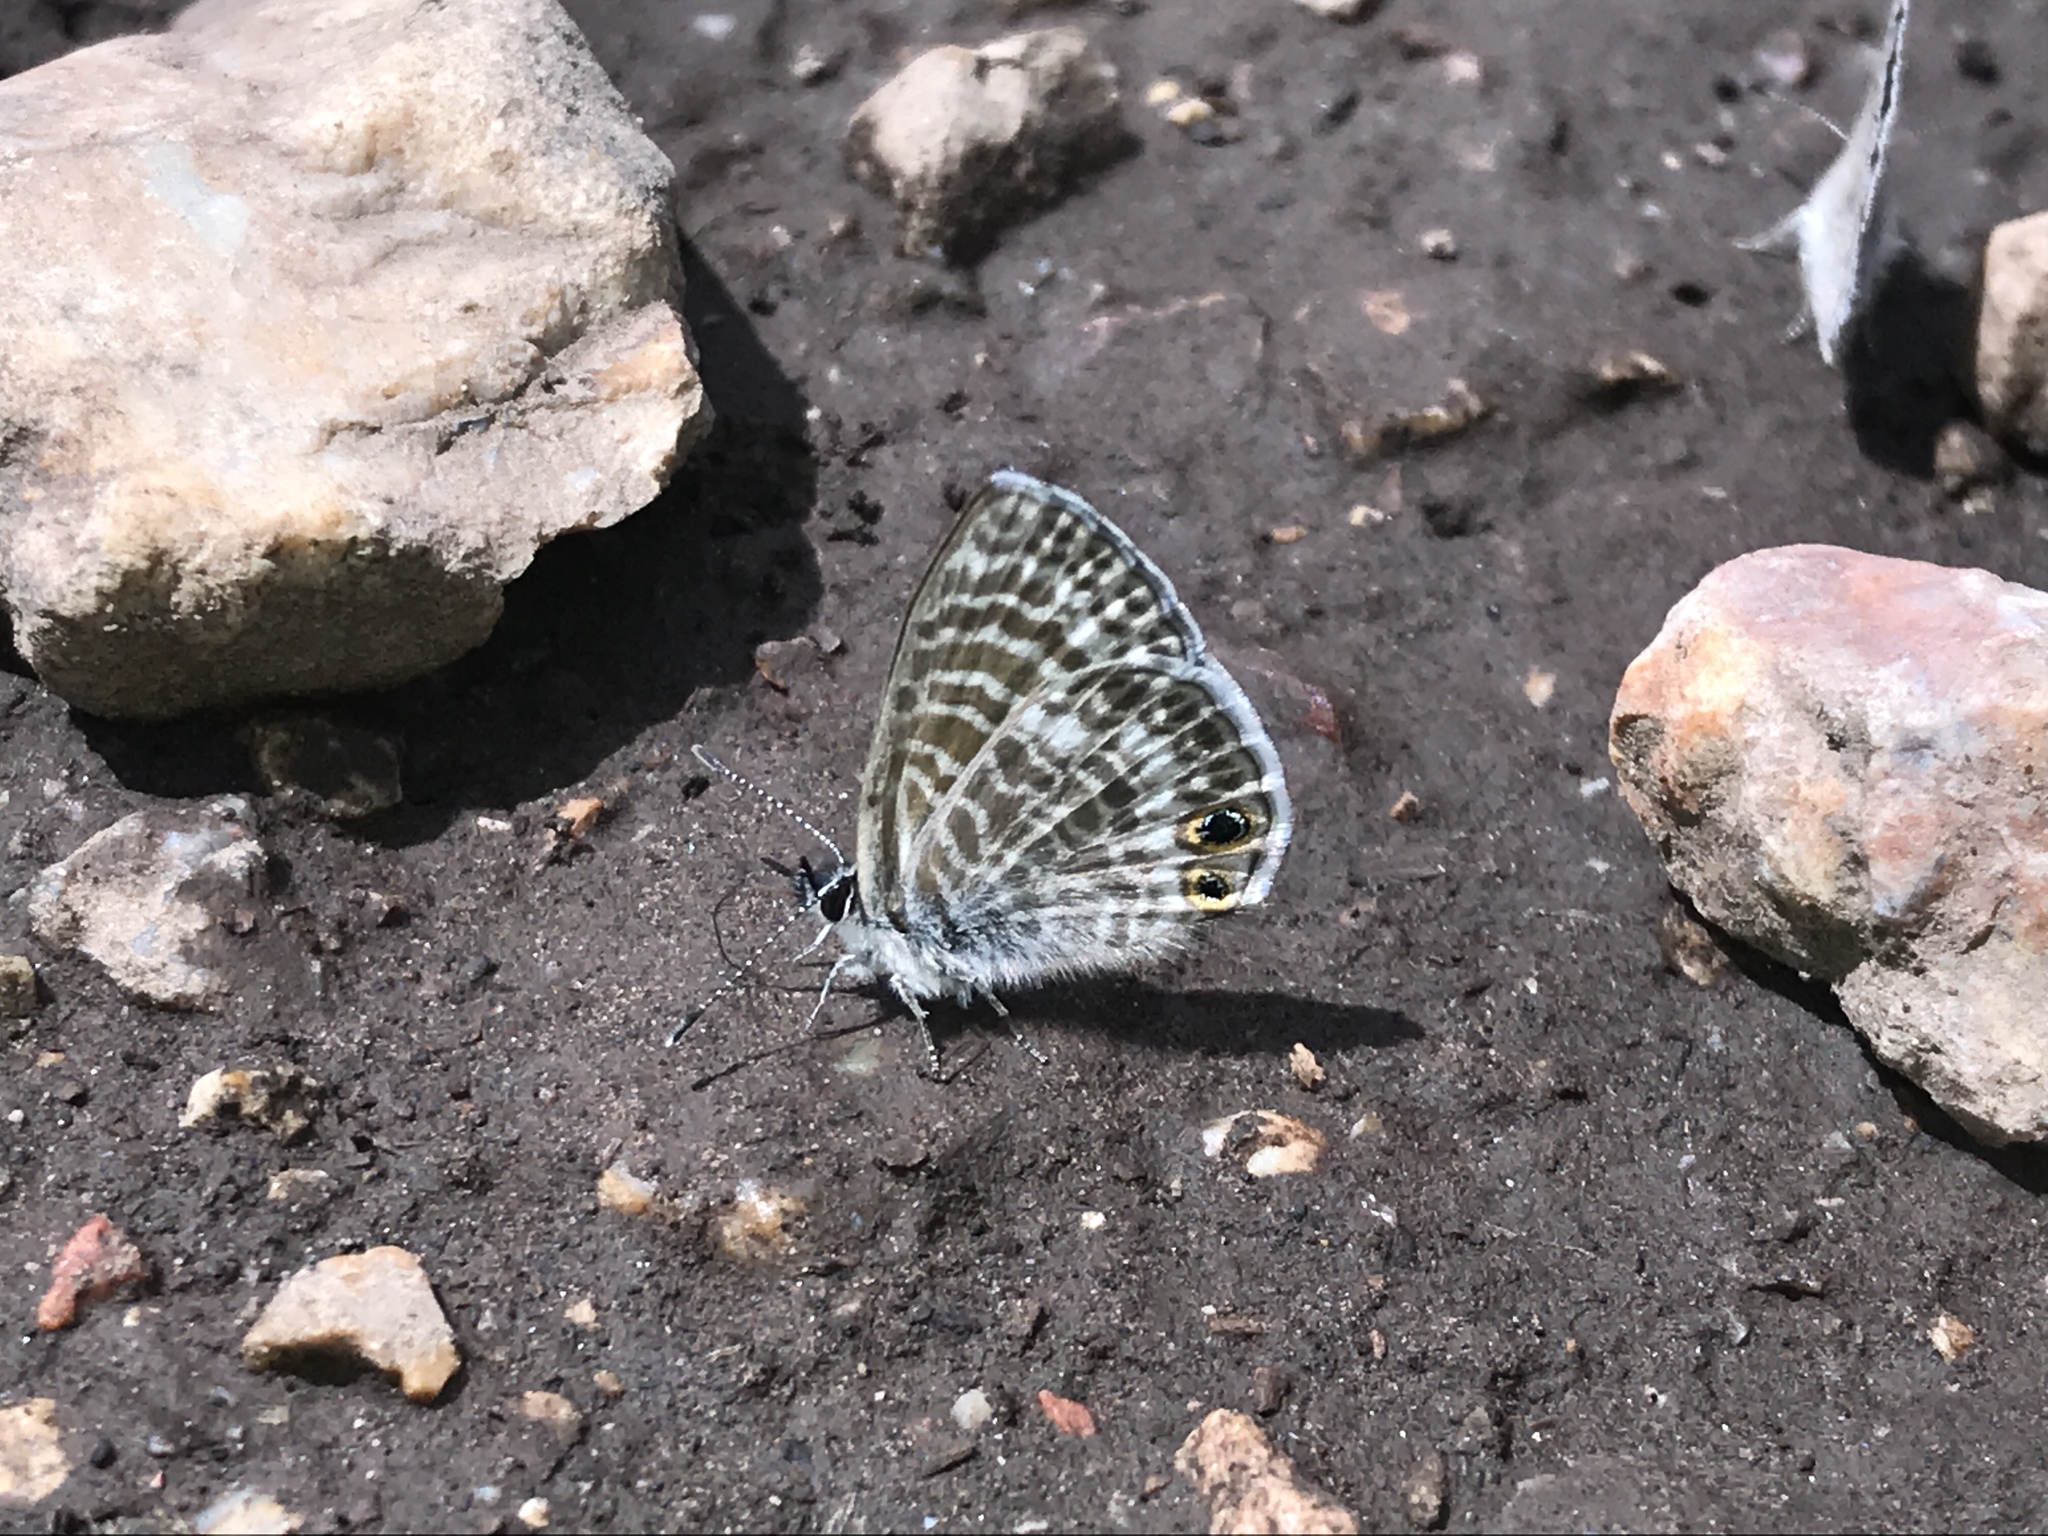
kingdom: Animalia
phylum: Arthropoda
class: Insecta
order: Lepidoptera
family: Lycaenidae
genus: Leptotes
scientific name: Leptotes marina
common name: Marine blue
